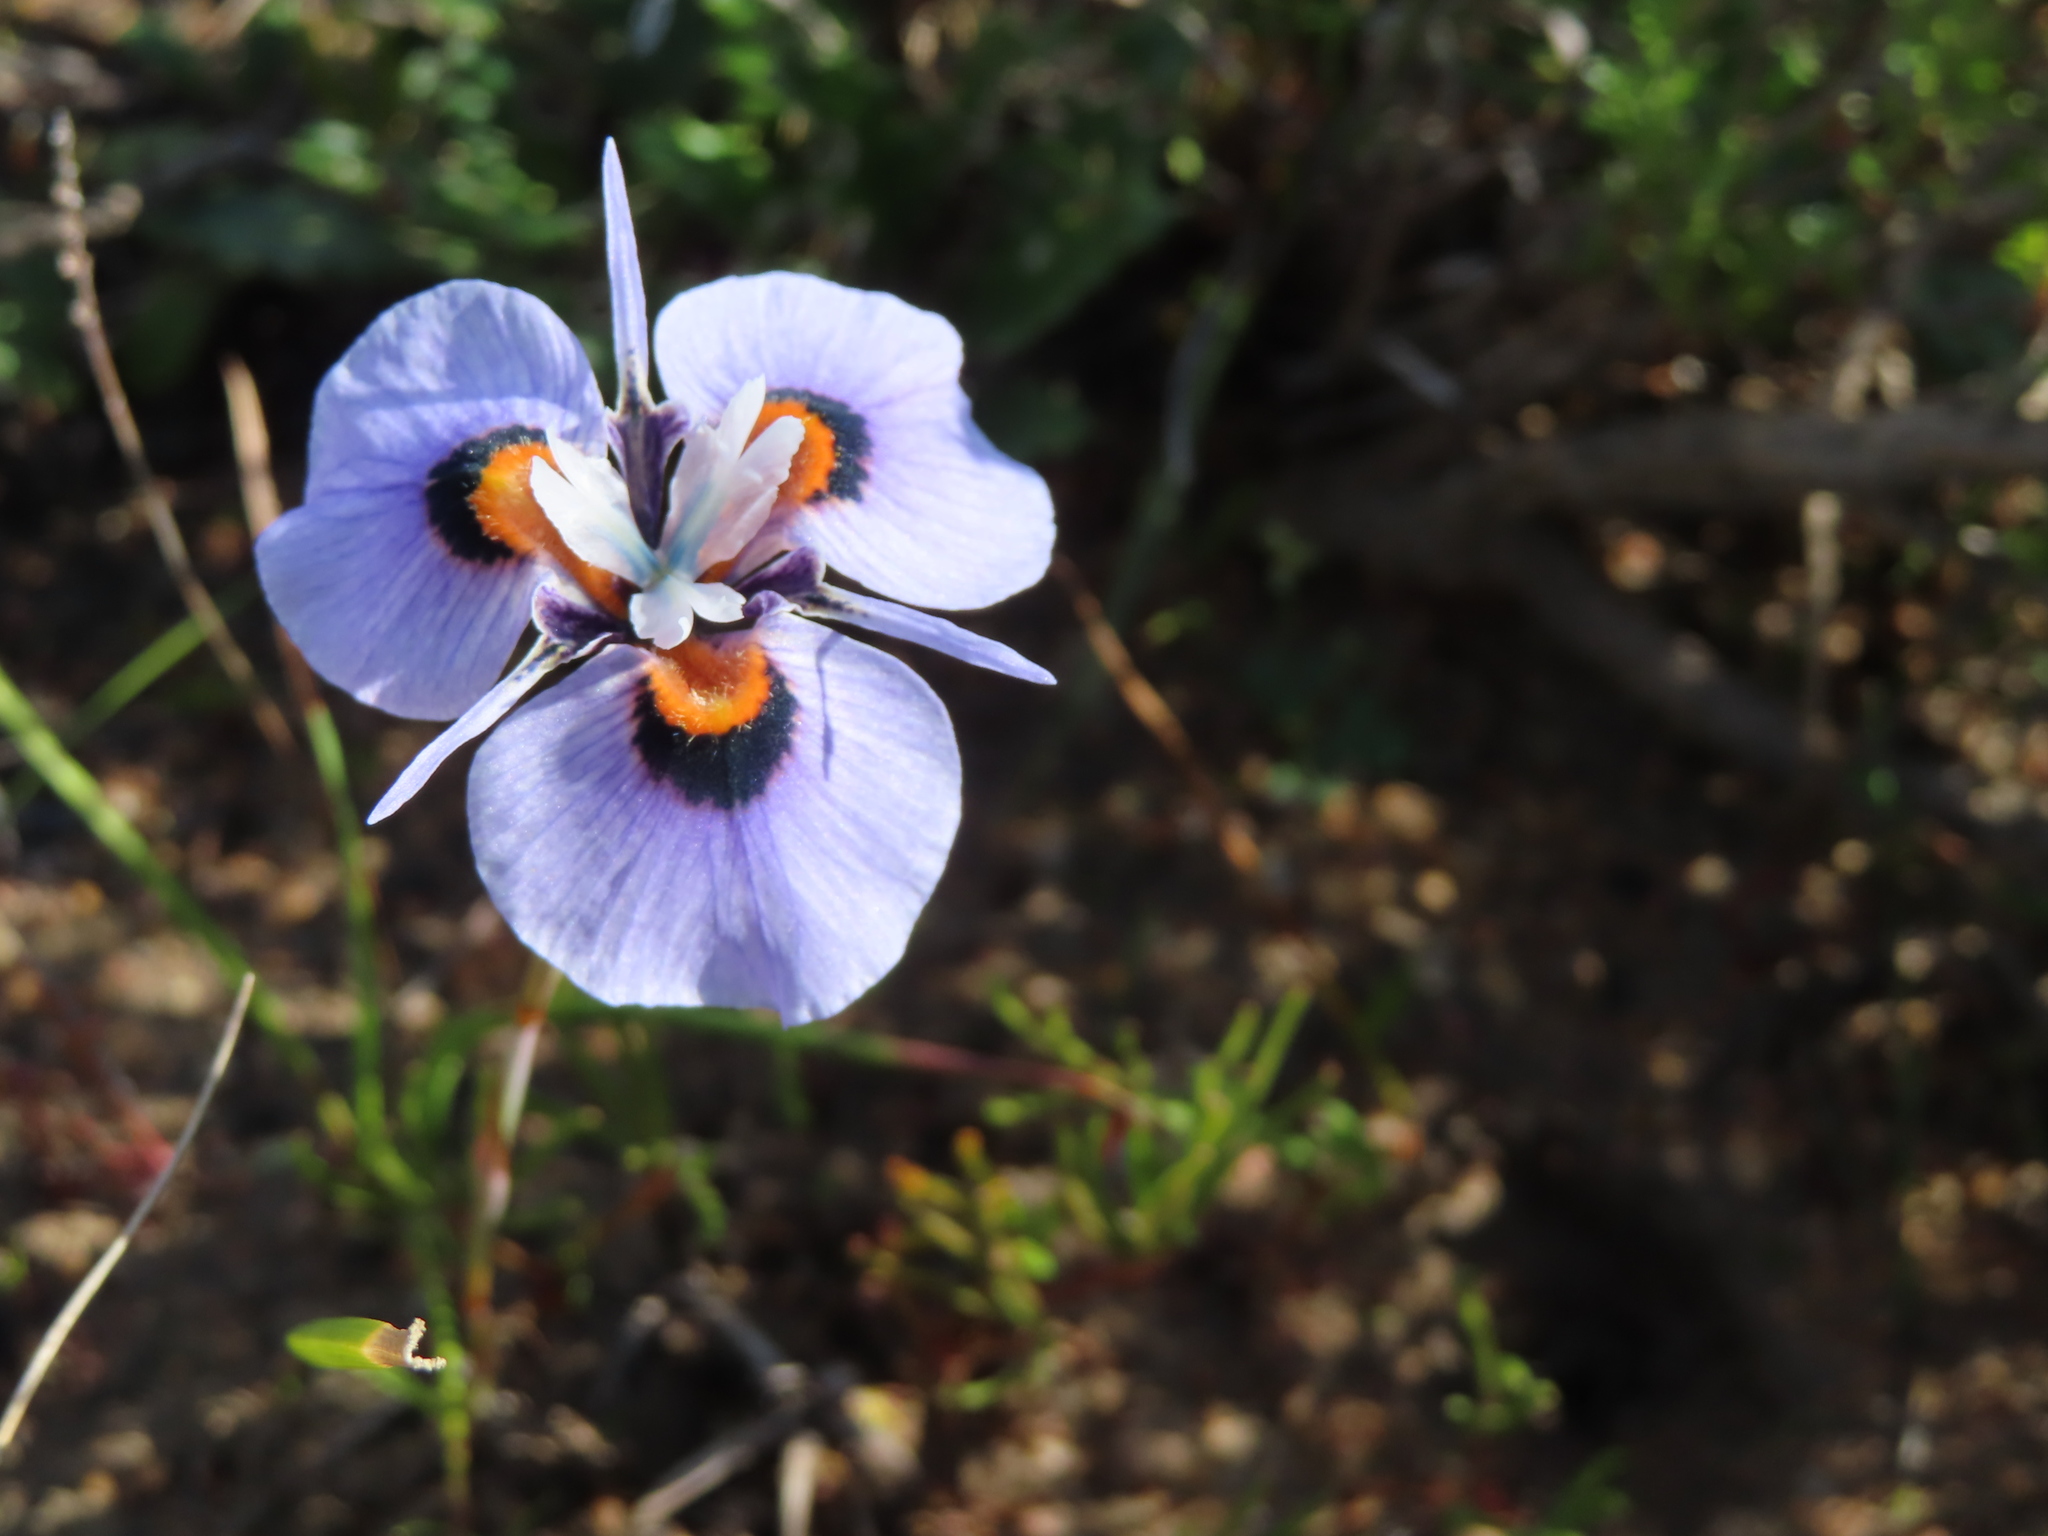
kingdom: Plantae
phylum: Tracheophyta
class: Liliopsida
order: Asparagales
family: Iridaceae
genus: Moraea
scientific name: Moraea villosa
